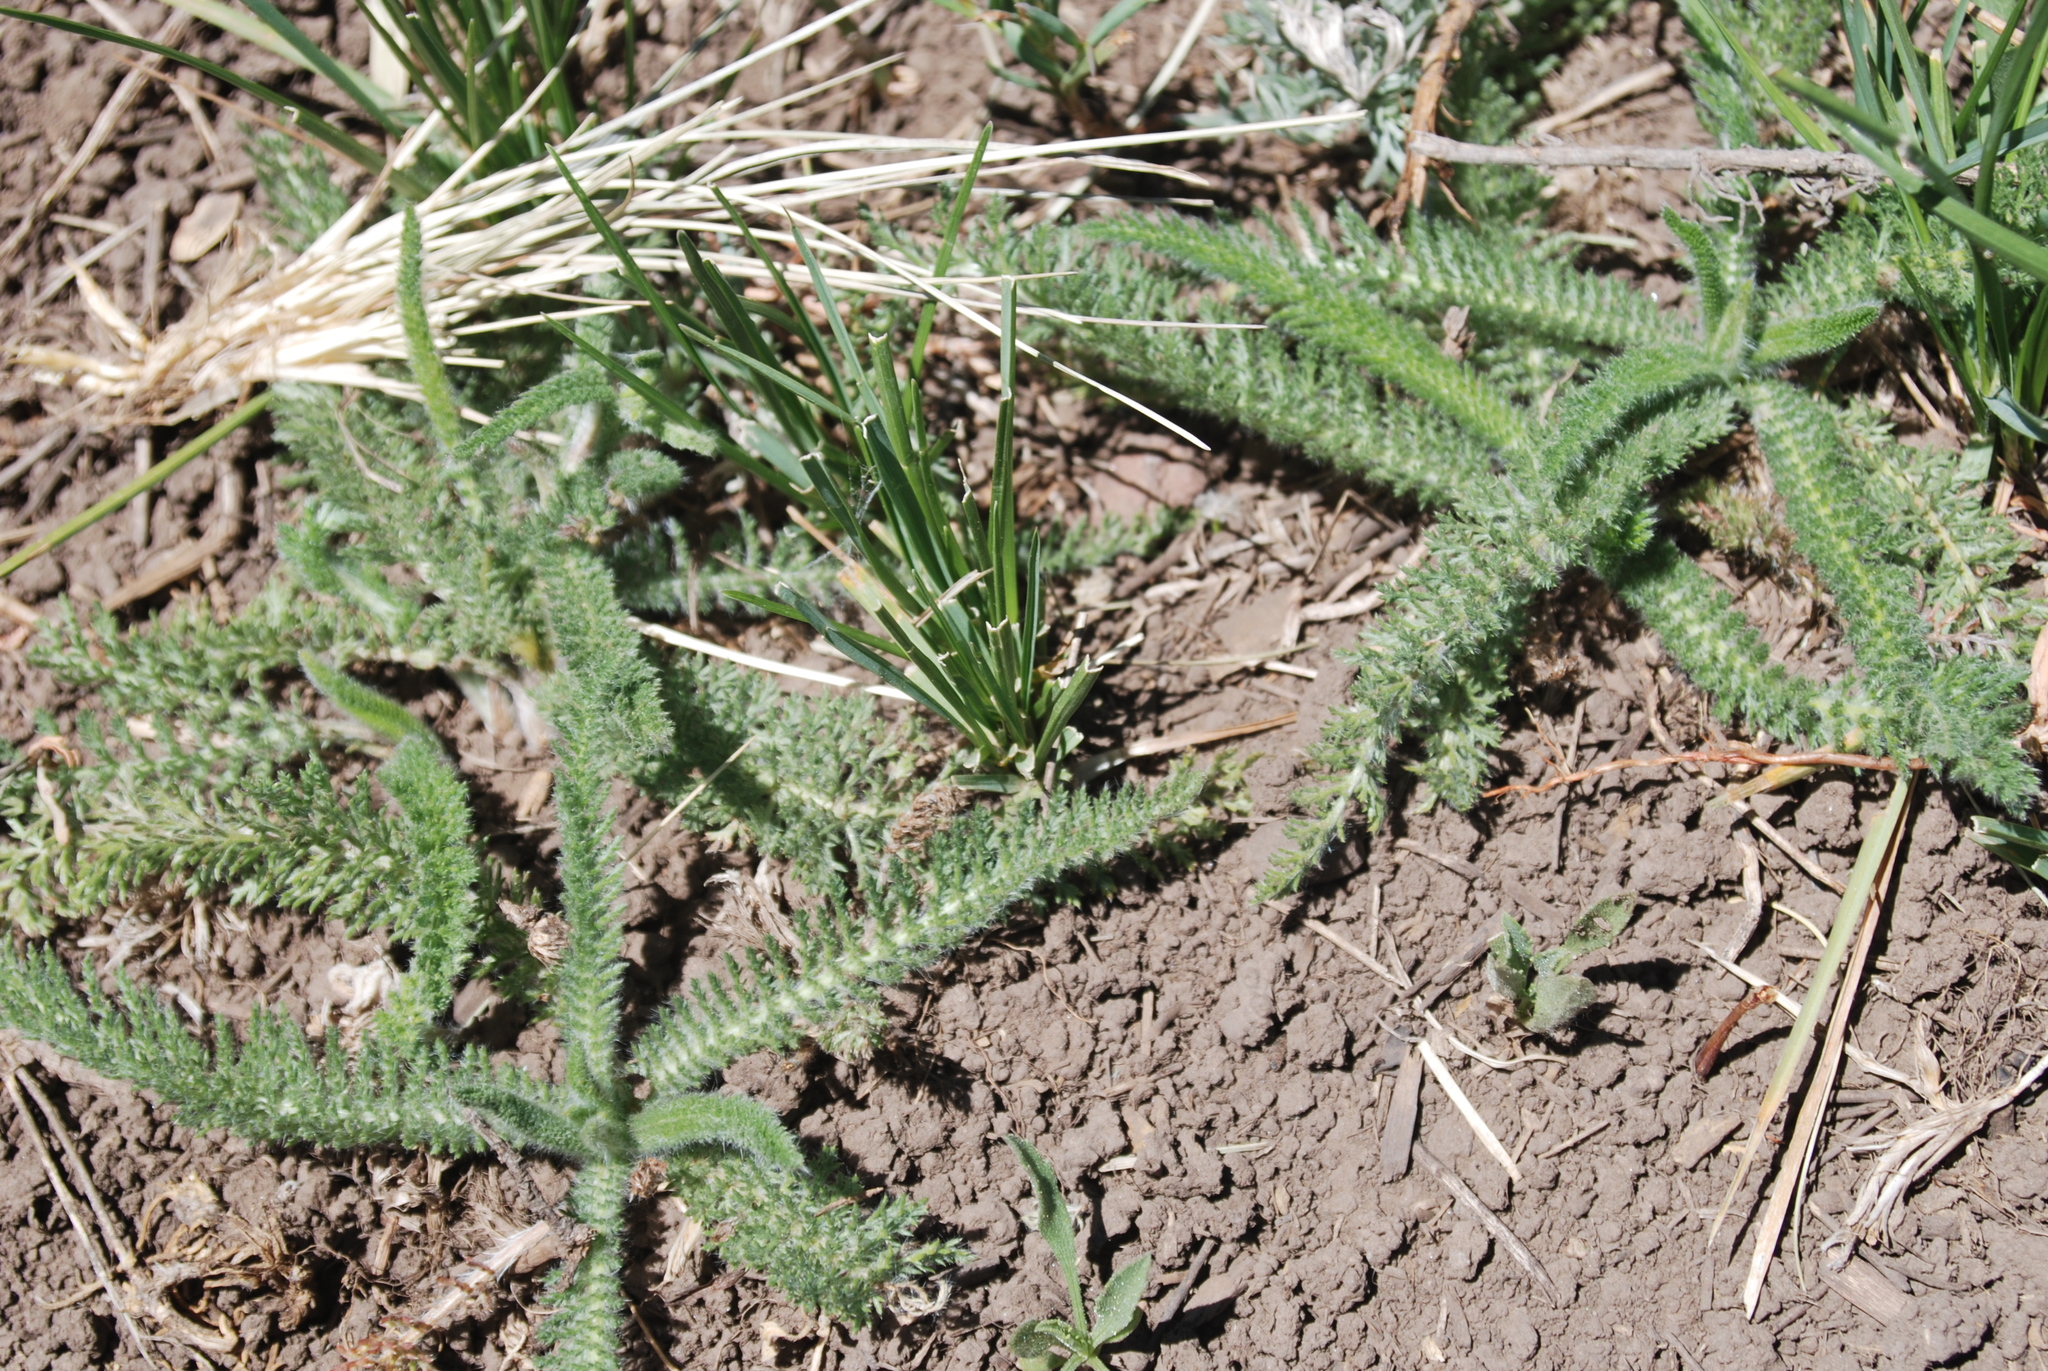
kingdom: Plantae
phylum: Tracheophyta
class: Magnoliopsida
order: Asterales
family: Asteraceae
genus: Achillea
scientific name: Achillea millefolium
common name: Yarrow
